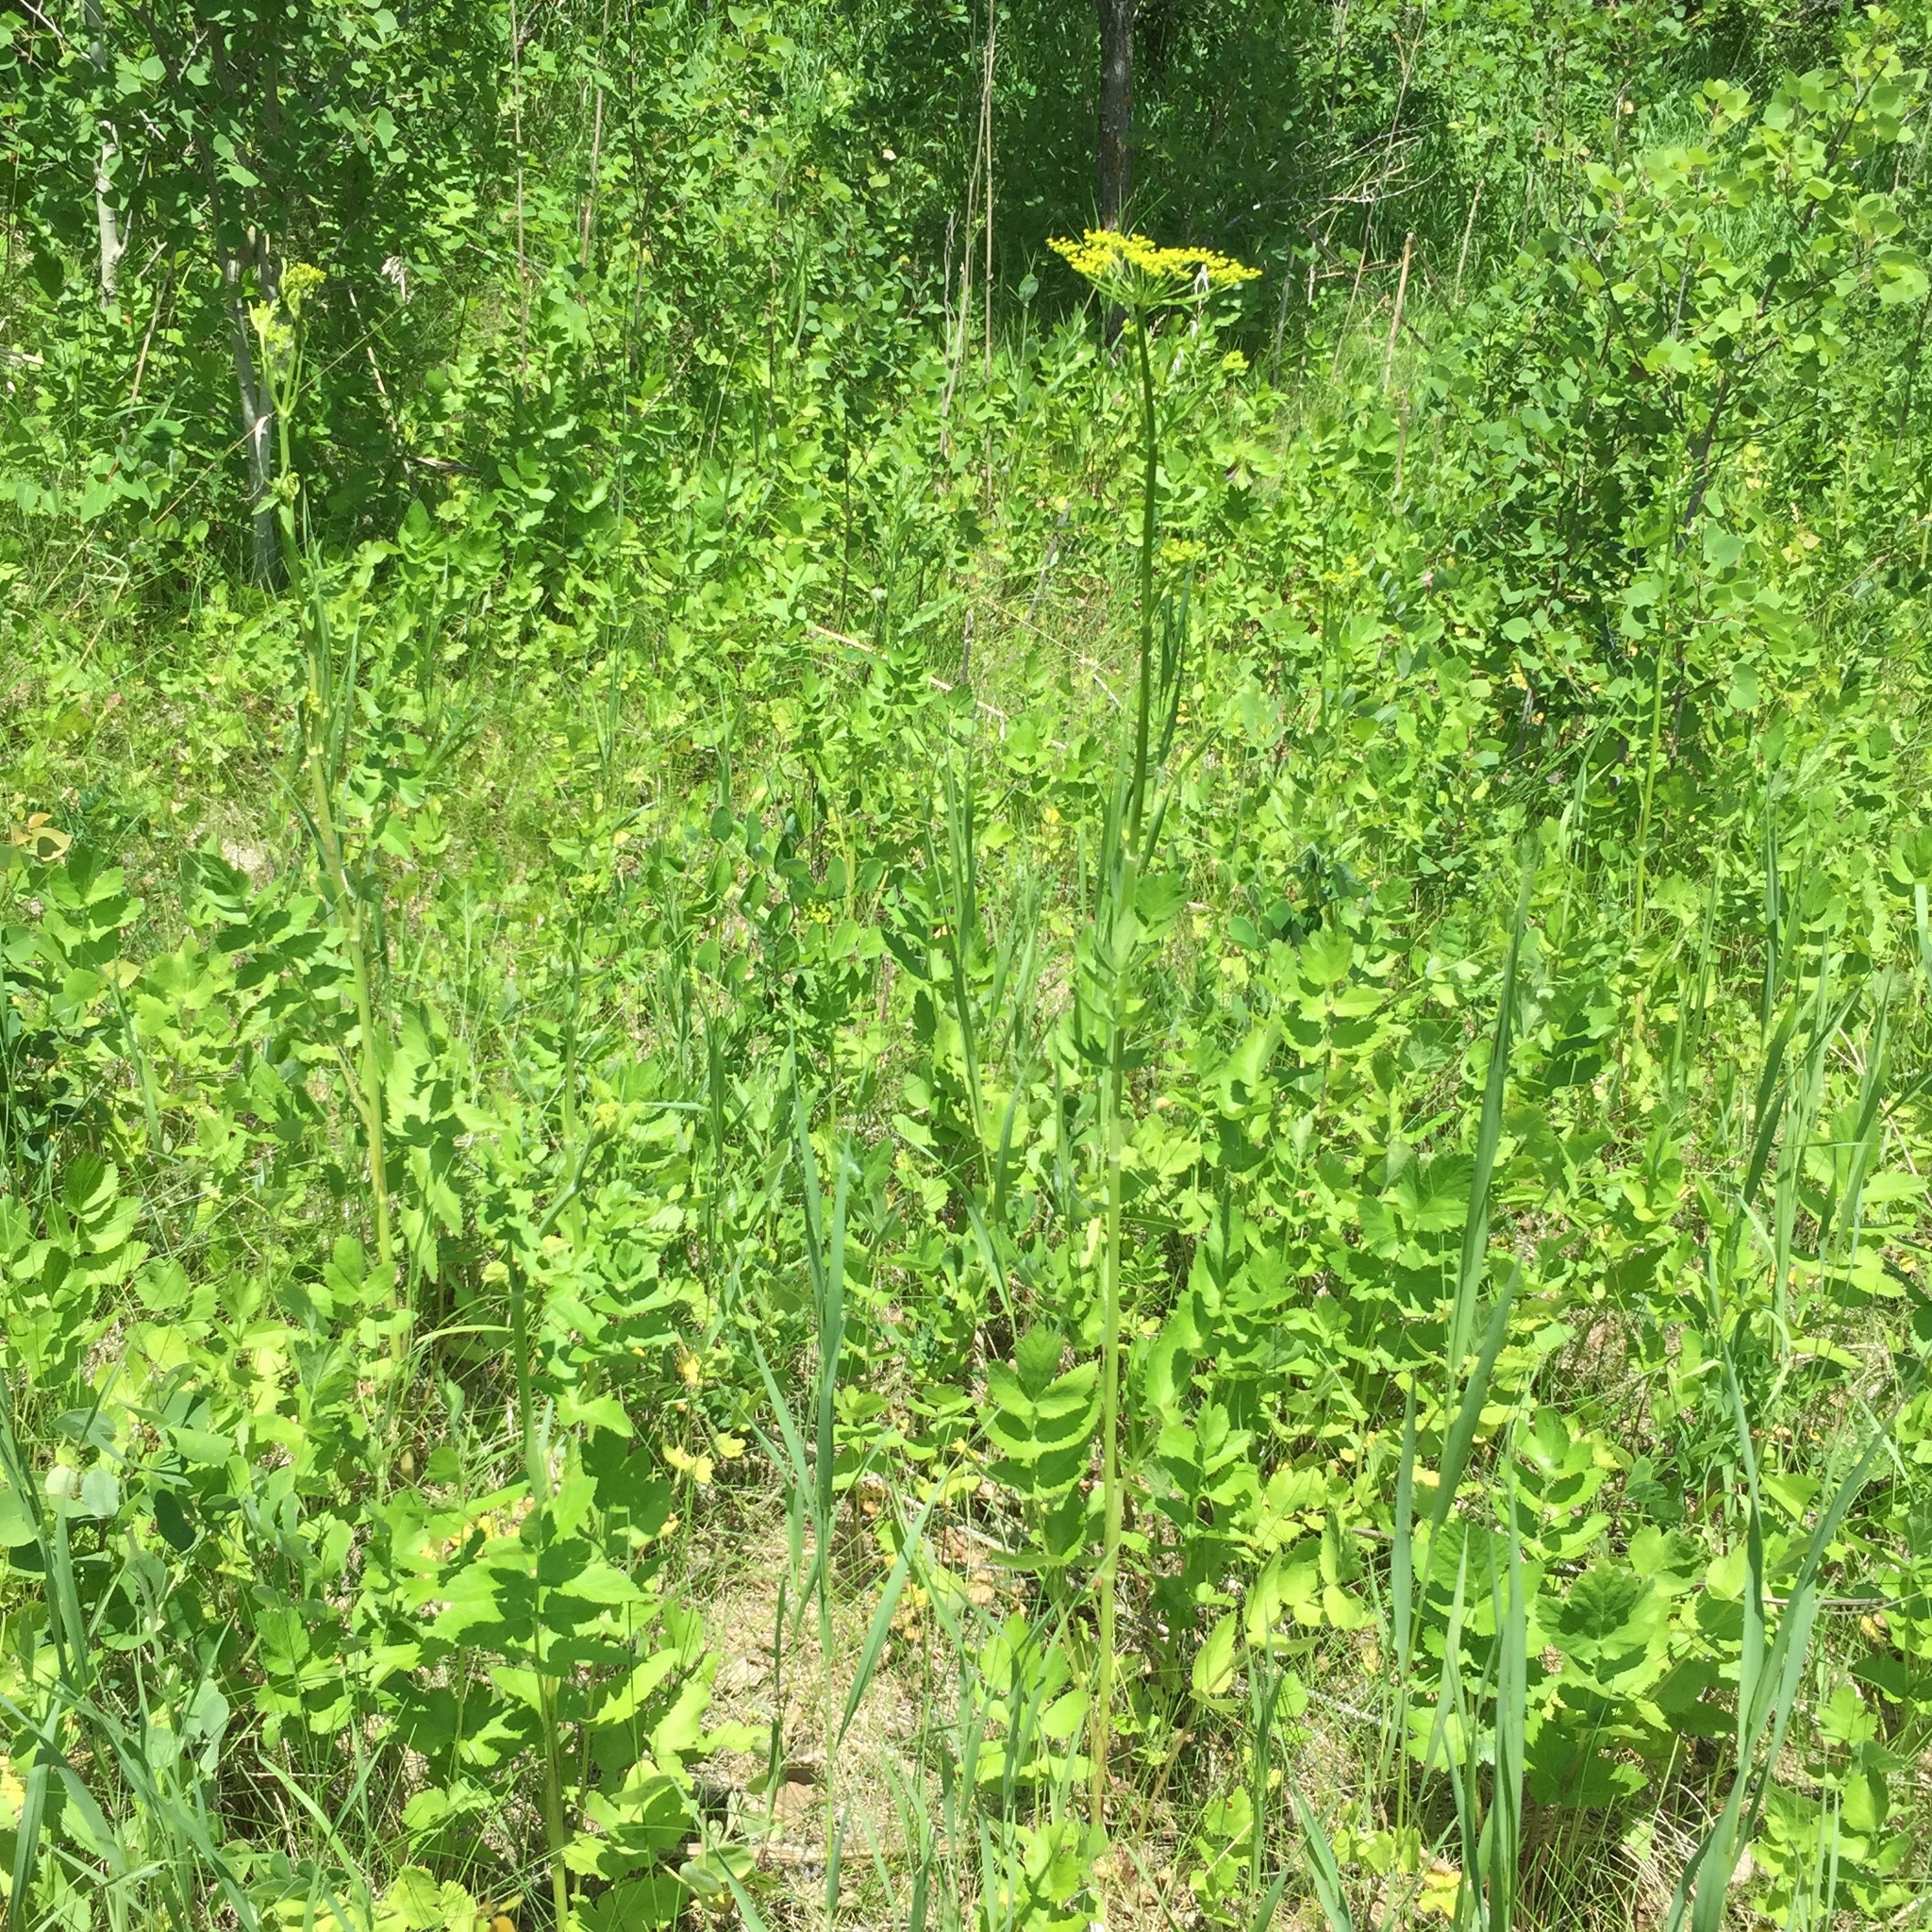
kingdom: Plantae
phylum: Tracheophyta
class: Magnoliopsida
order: Apiales
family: Apiaceae
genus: Pastinaca
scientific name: Pastinaca sativa
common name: Wild parsnip
